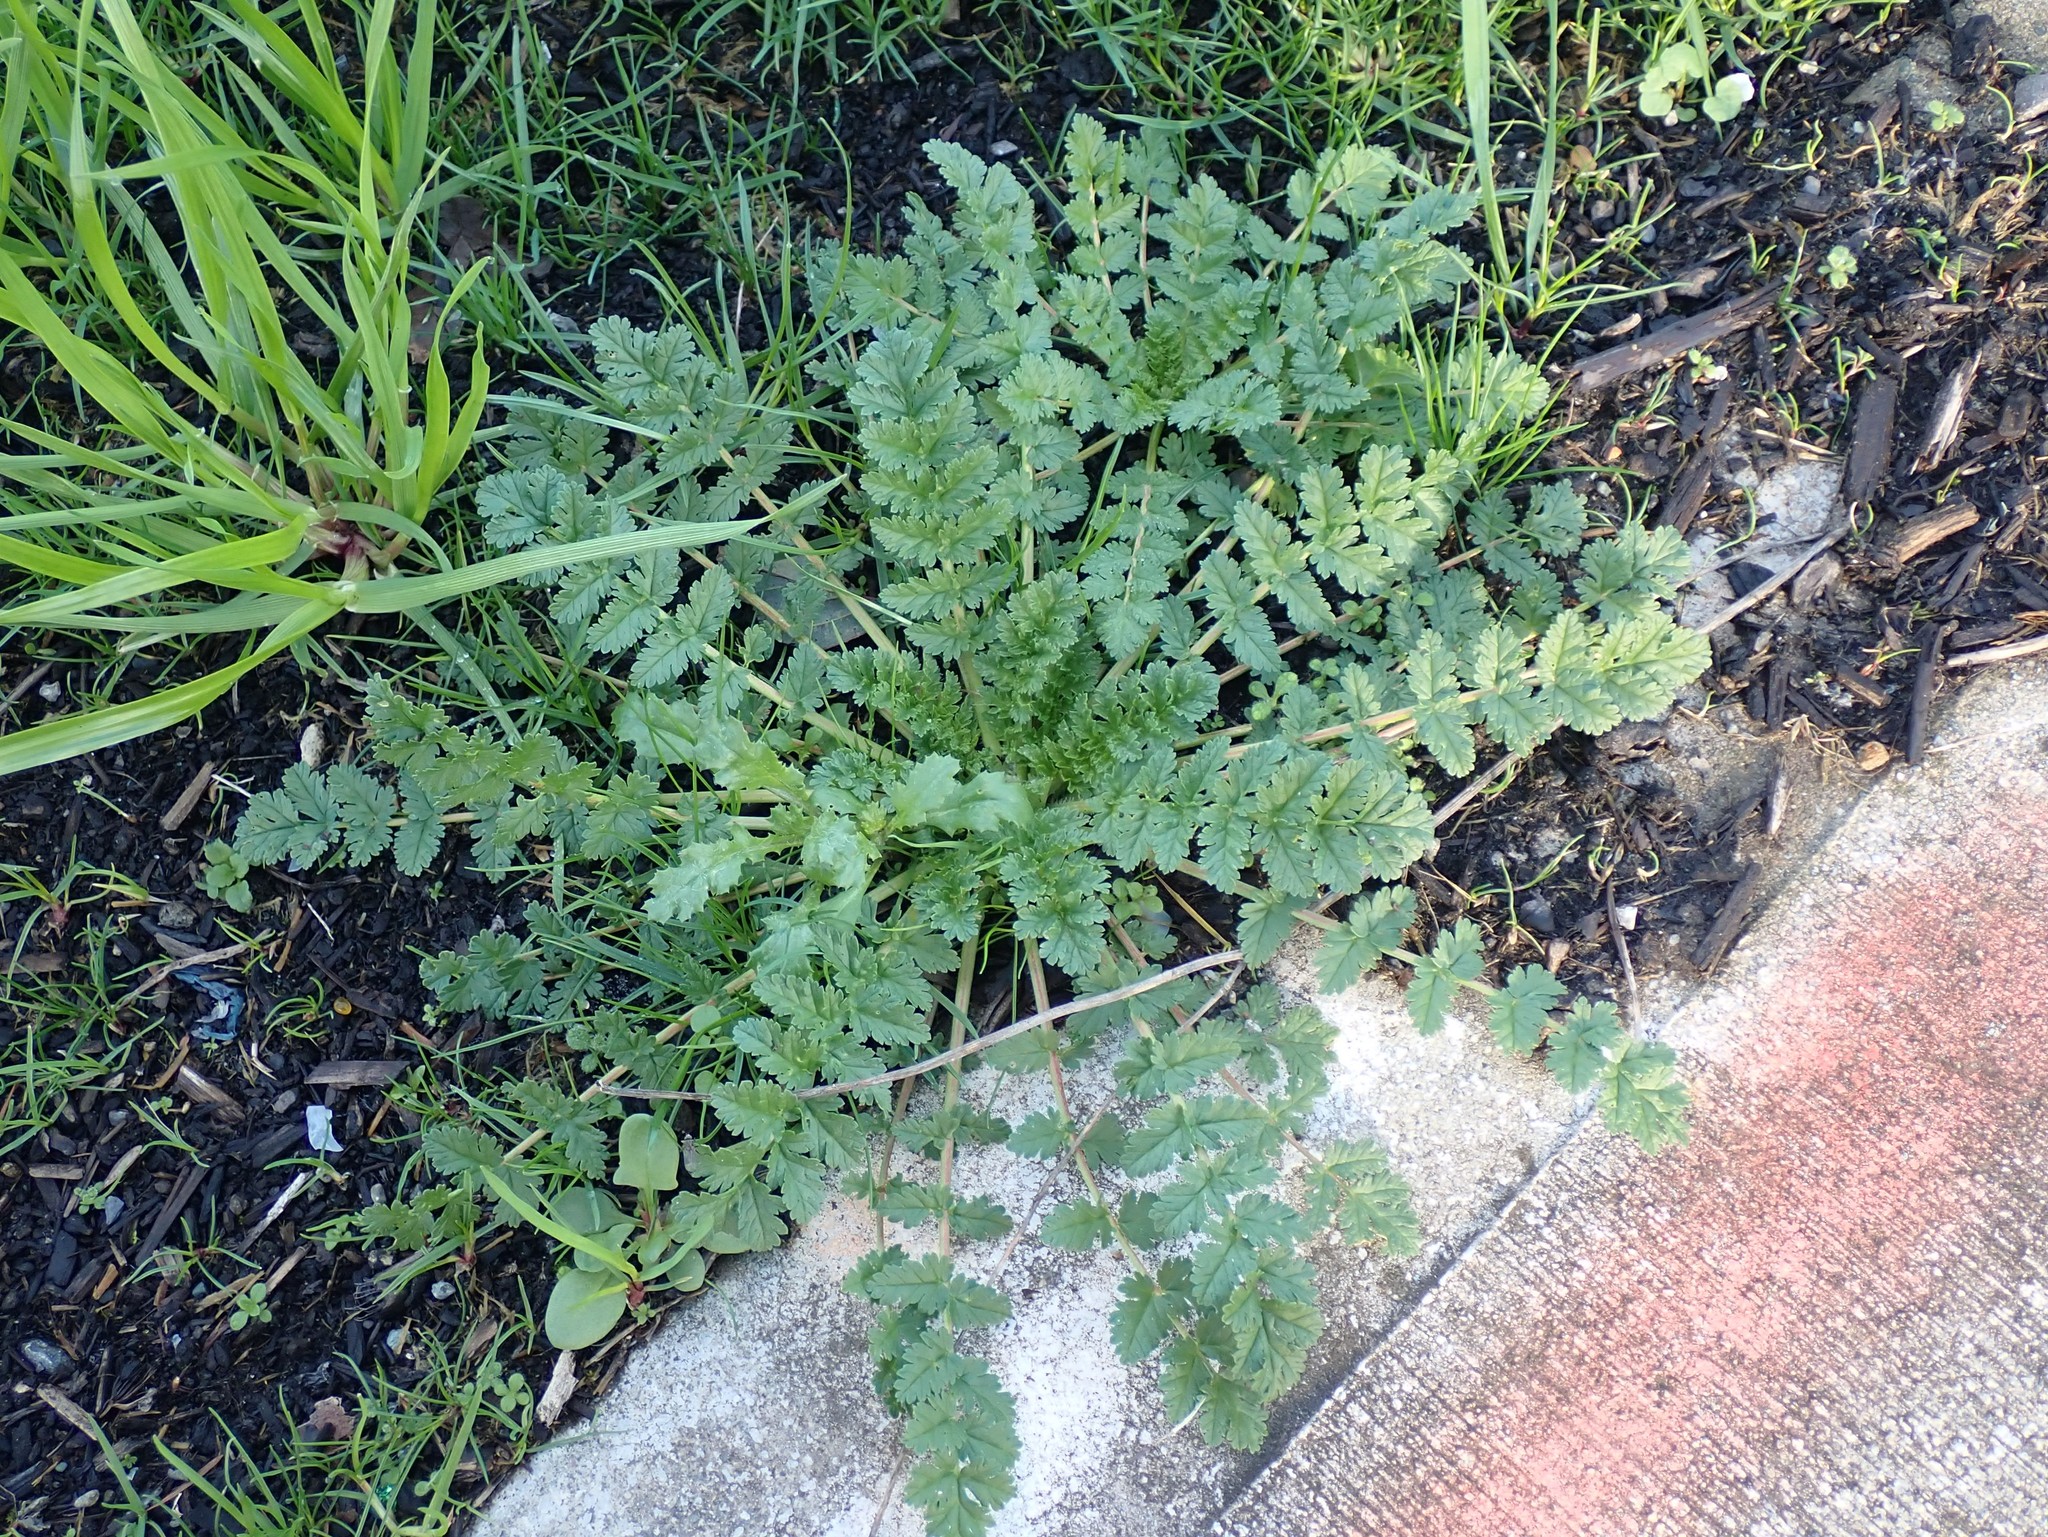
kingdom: Plantae
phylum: Tracheophyta
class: Magnoliopsida
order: Geraniales
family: Geraniaceae
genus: Erodium
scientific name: Erodium cicutarium
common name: Common stork's-bill
